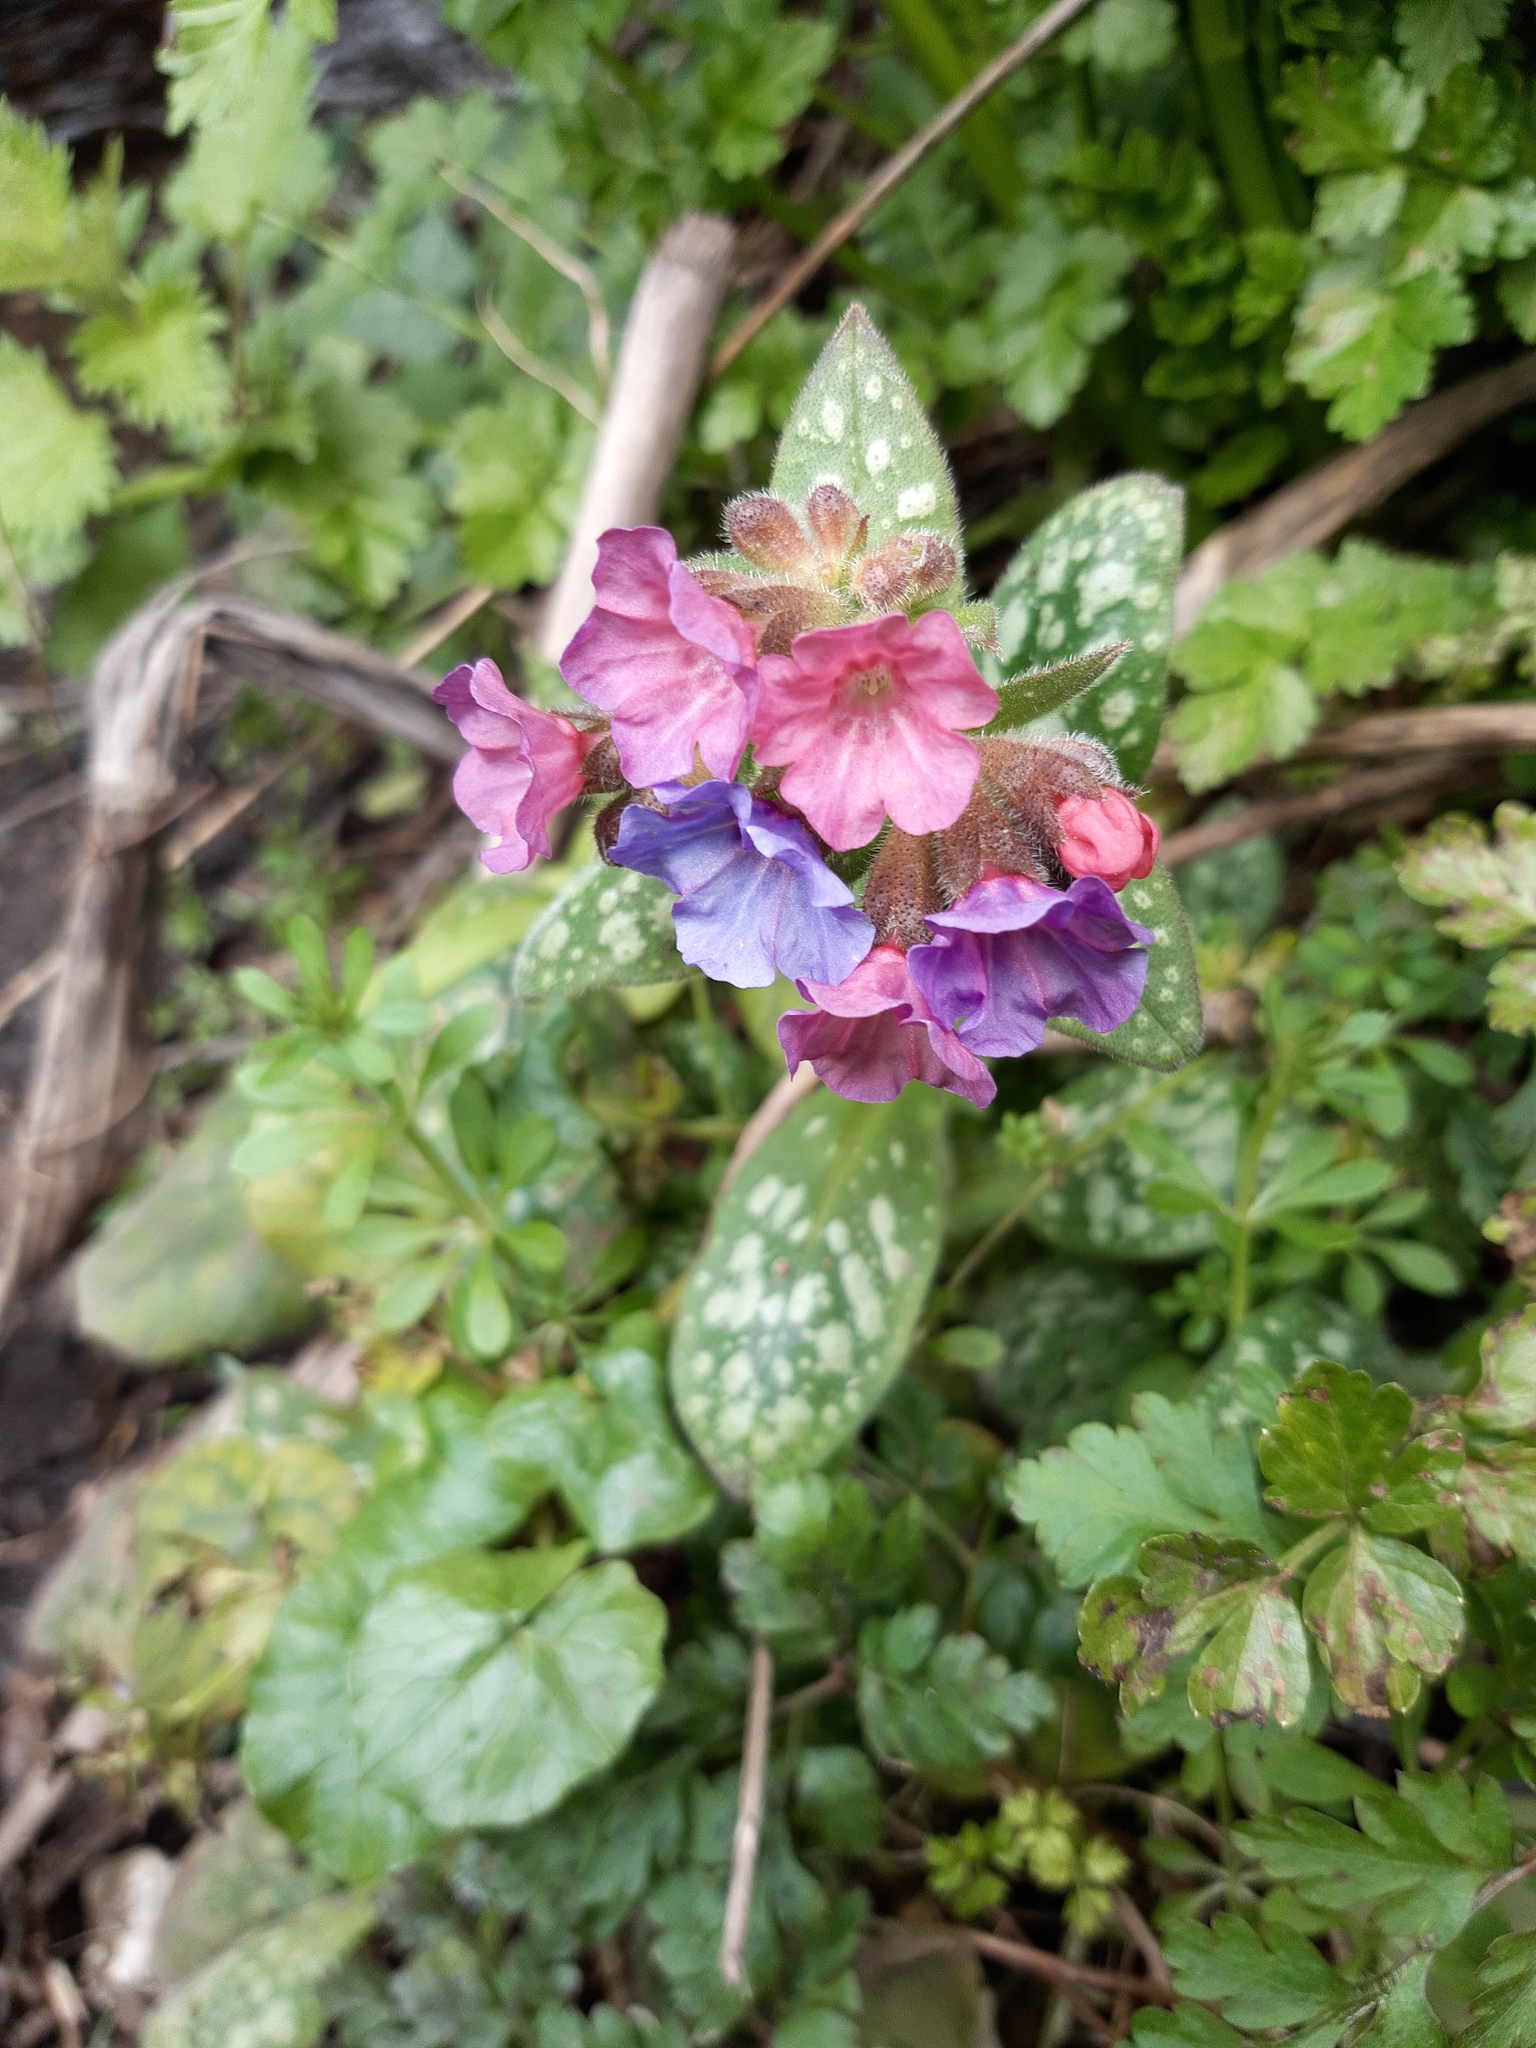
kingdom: Plantae
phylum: Tracheophyta
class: Magnoliopsida
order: Boraginales
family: Boraginaceae
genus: Pulmonaria
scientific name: Pulmonaria officinalis
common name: Lungwort
